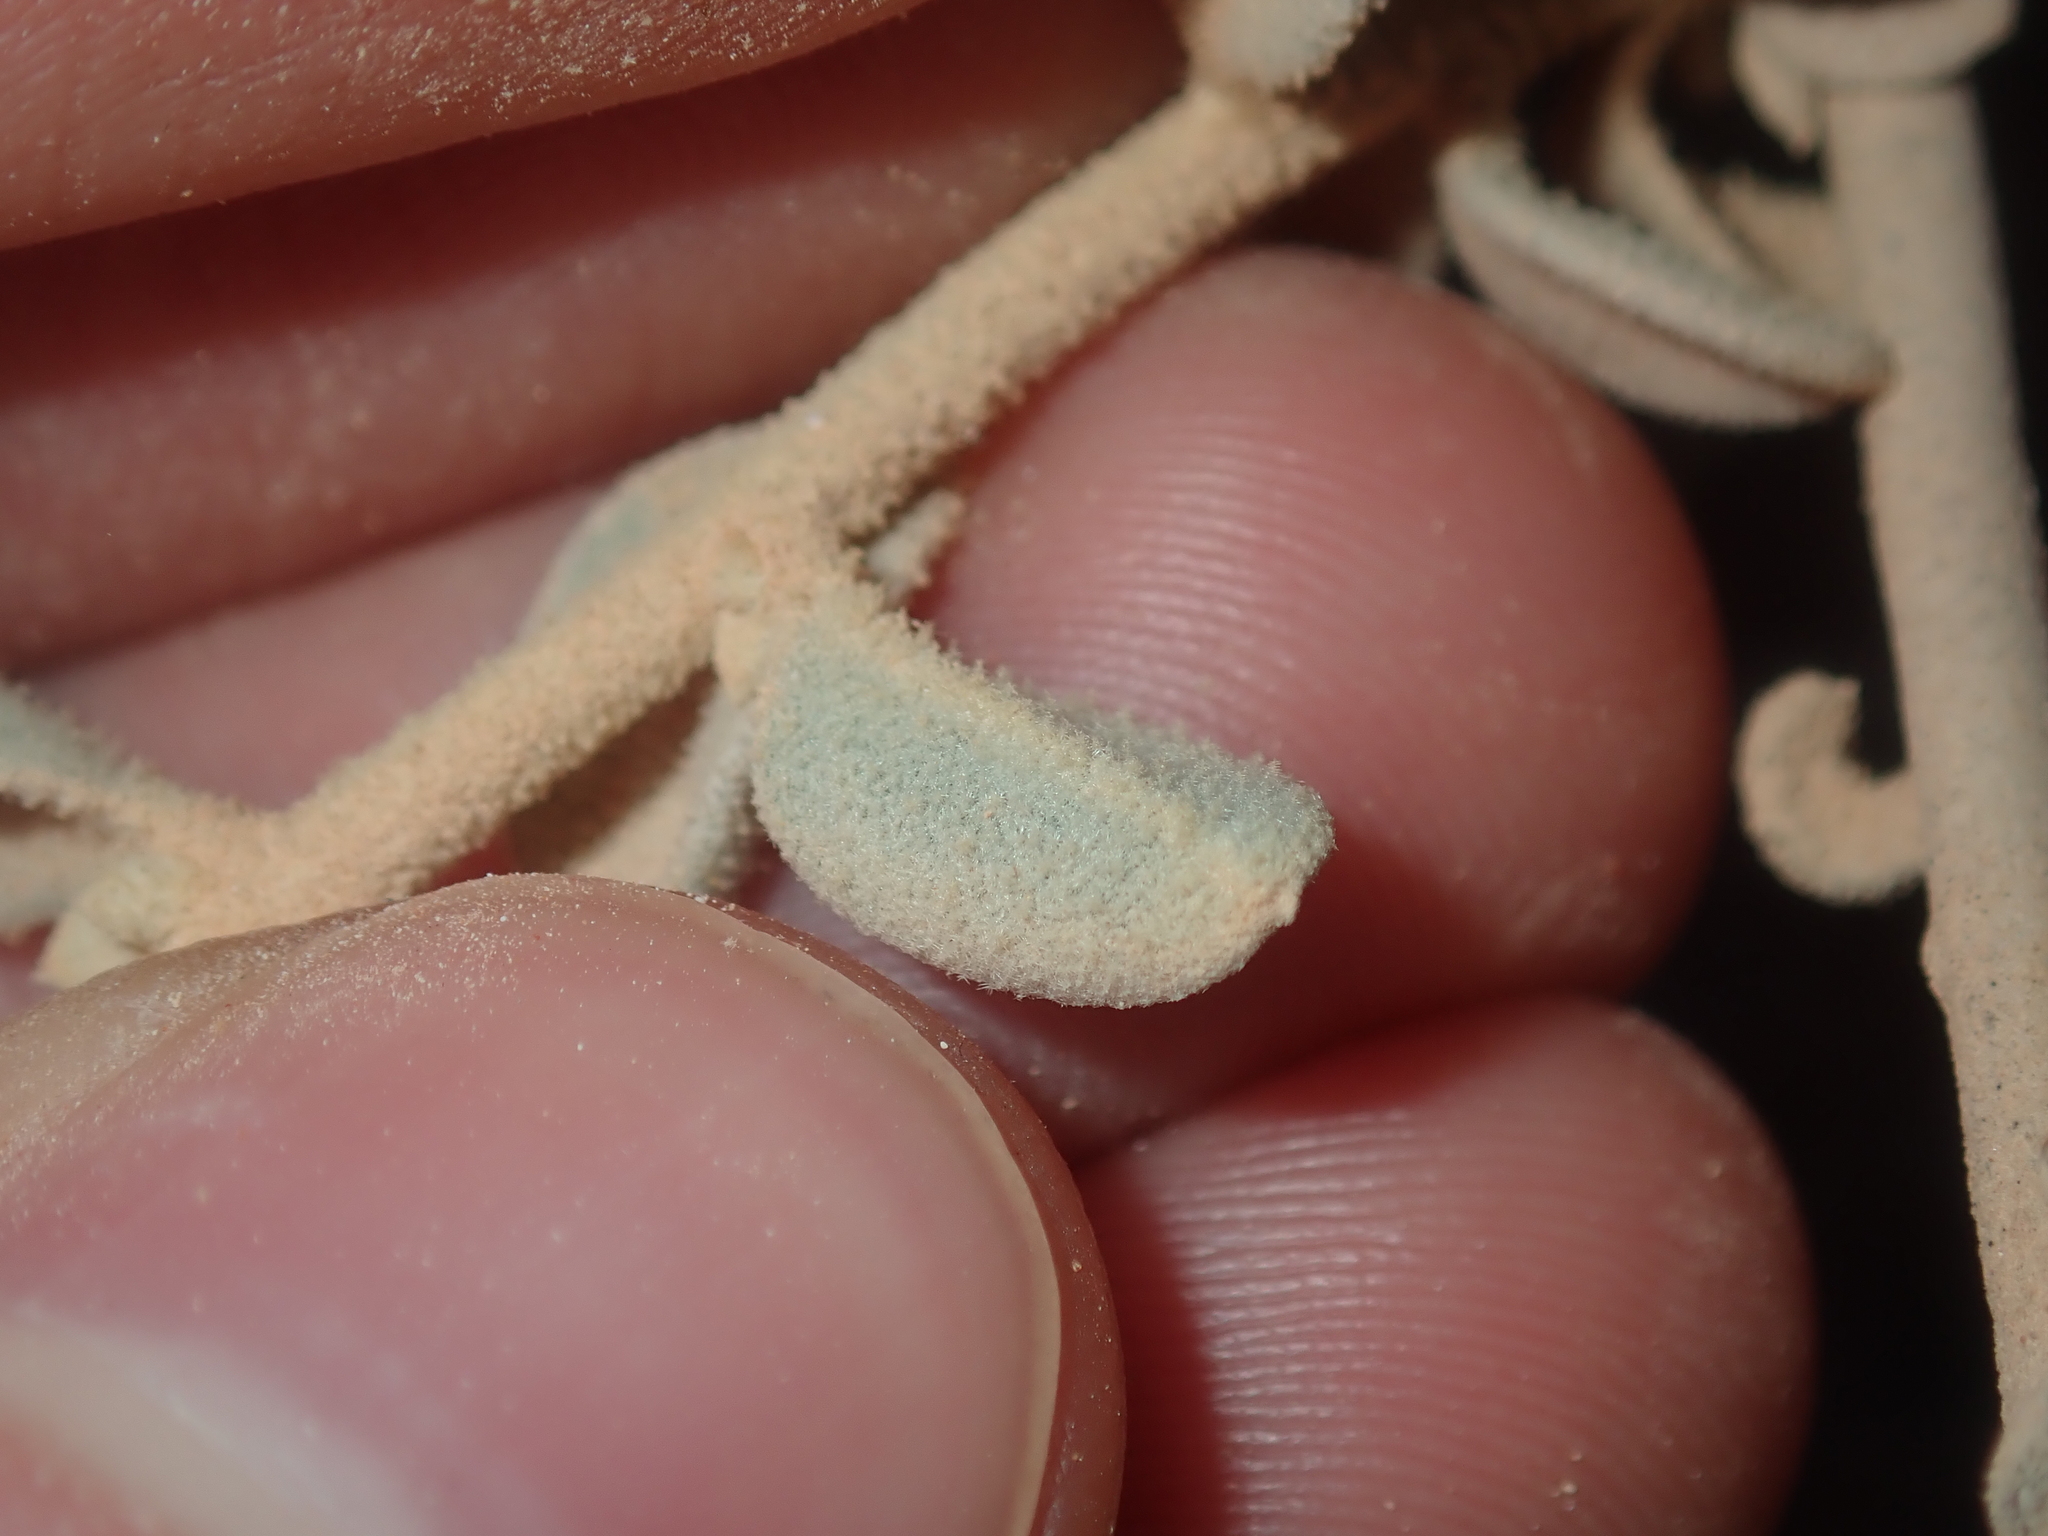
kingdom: Plantae
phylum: Tracheophyta
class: Magnoliopsida
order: Caryophyllales
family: Amaranthaceae
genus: Ptilotus
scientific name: Ptilotus obovatus
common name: Cottonbush
